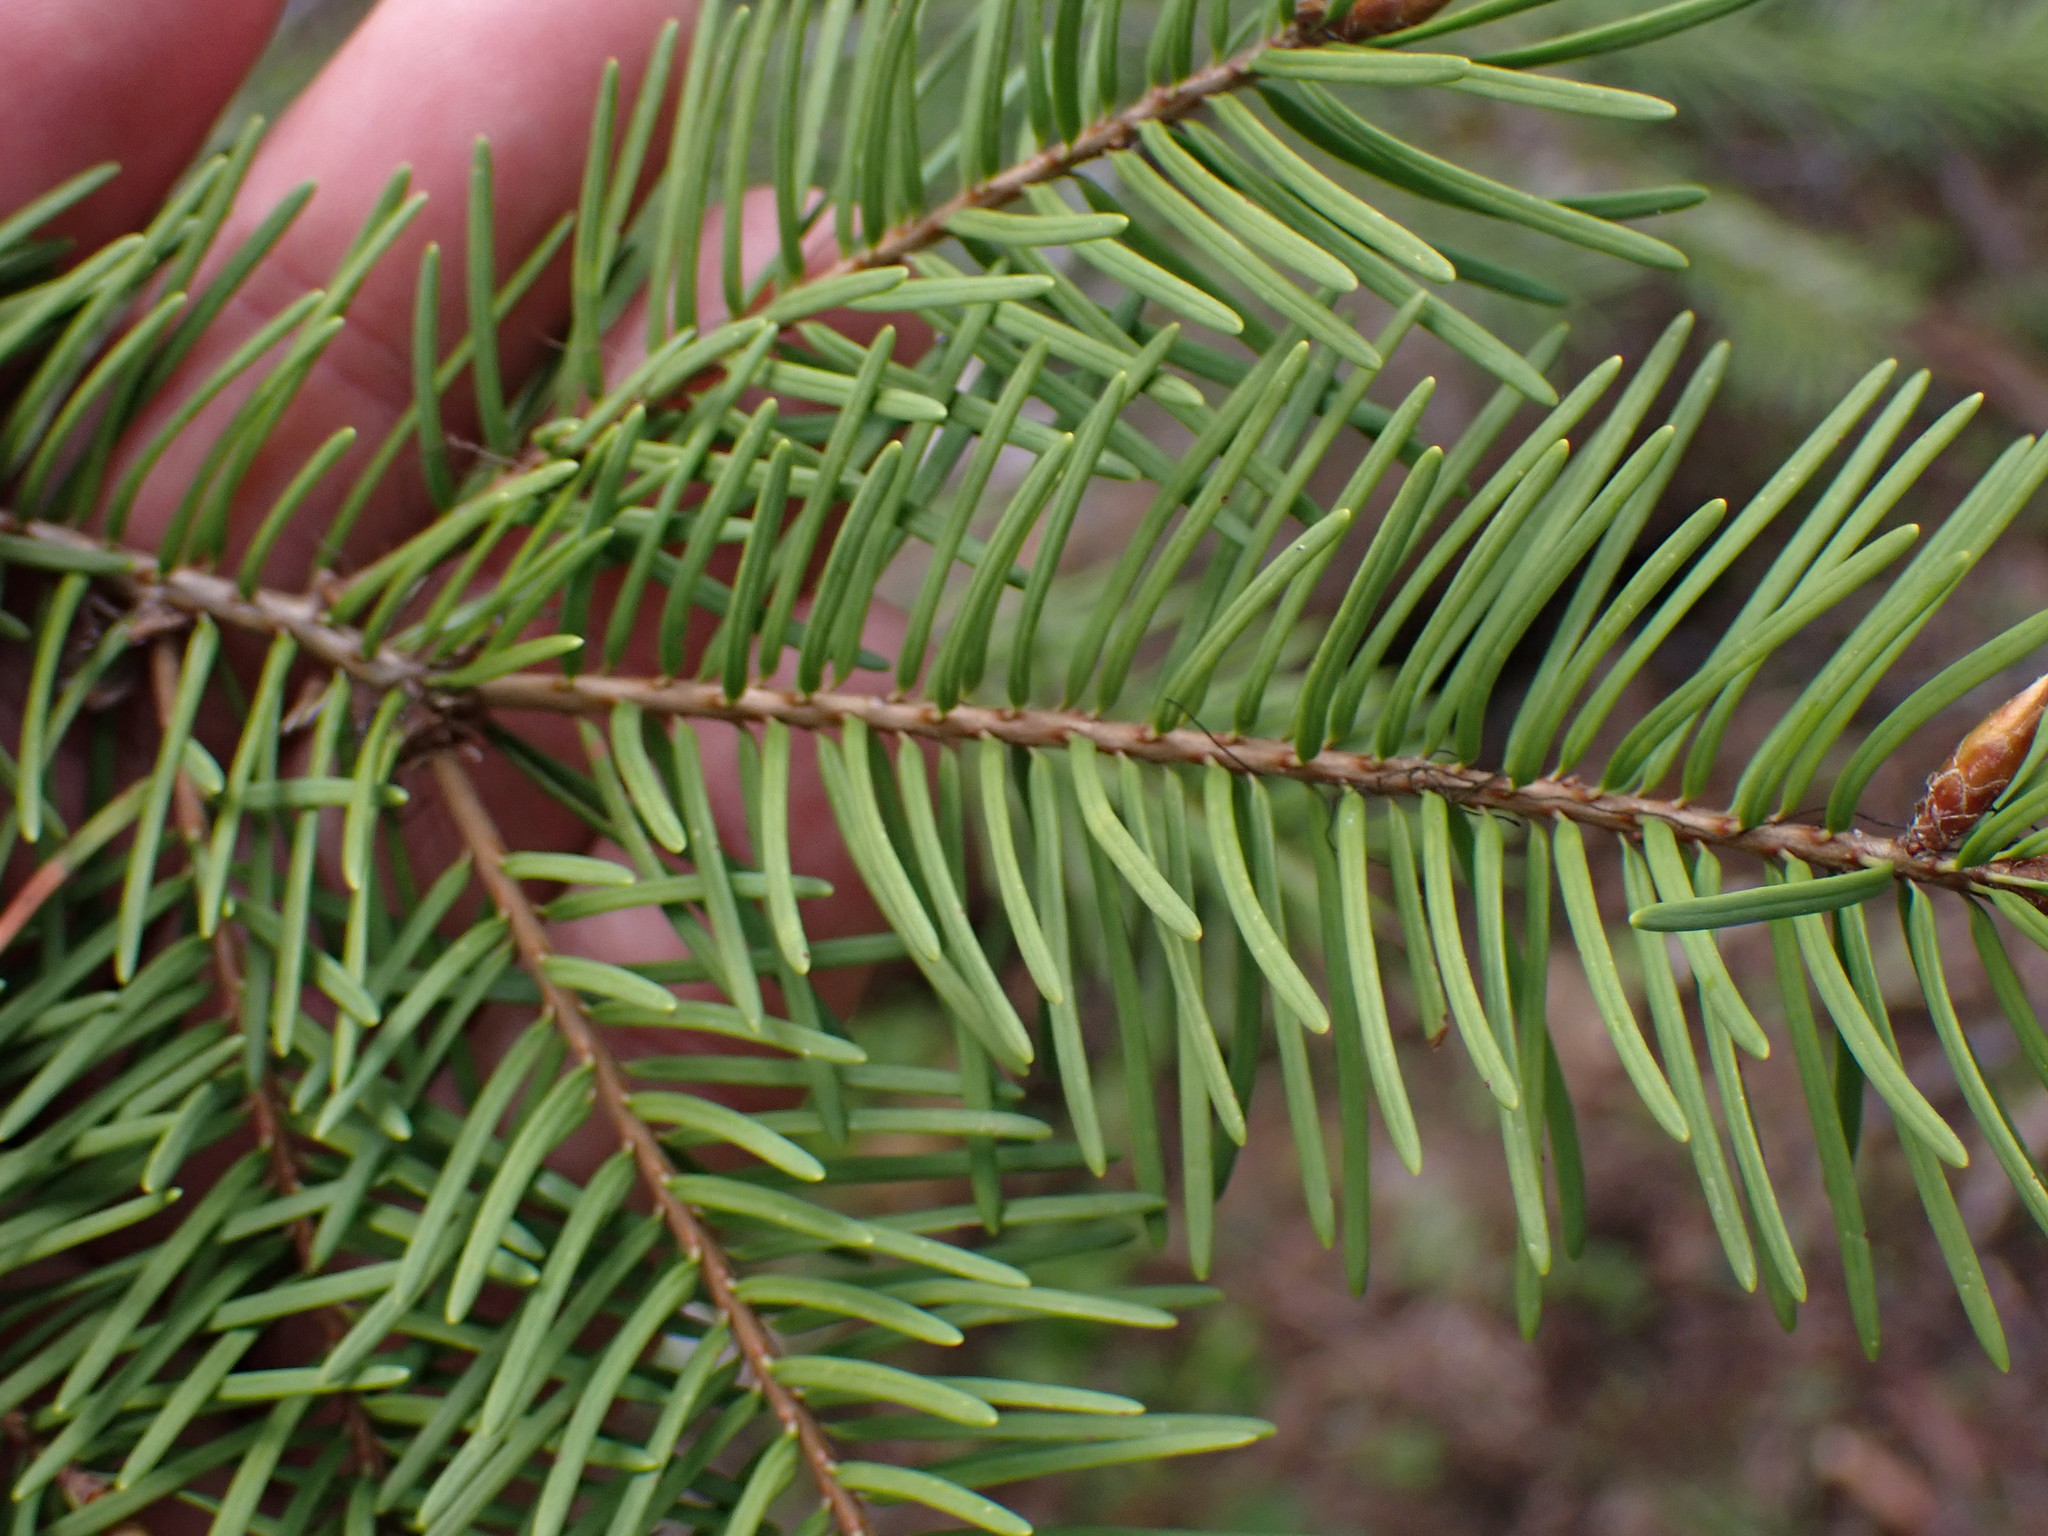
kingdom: Plantae
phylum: Tracheophyta
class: Pinopsida
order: Pinales
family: Pinaceae
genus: Pseudotsuga
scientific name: Pseudotsuga menziesii
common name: Douglas fir
